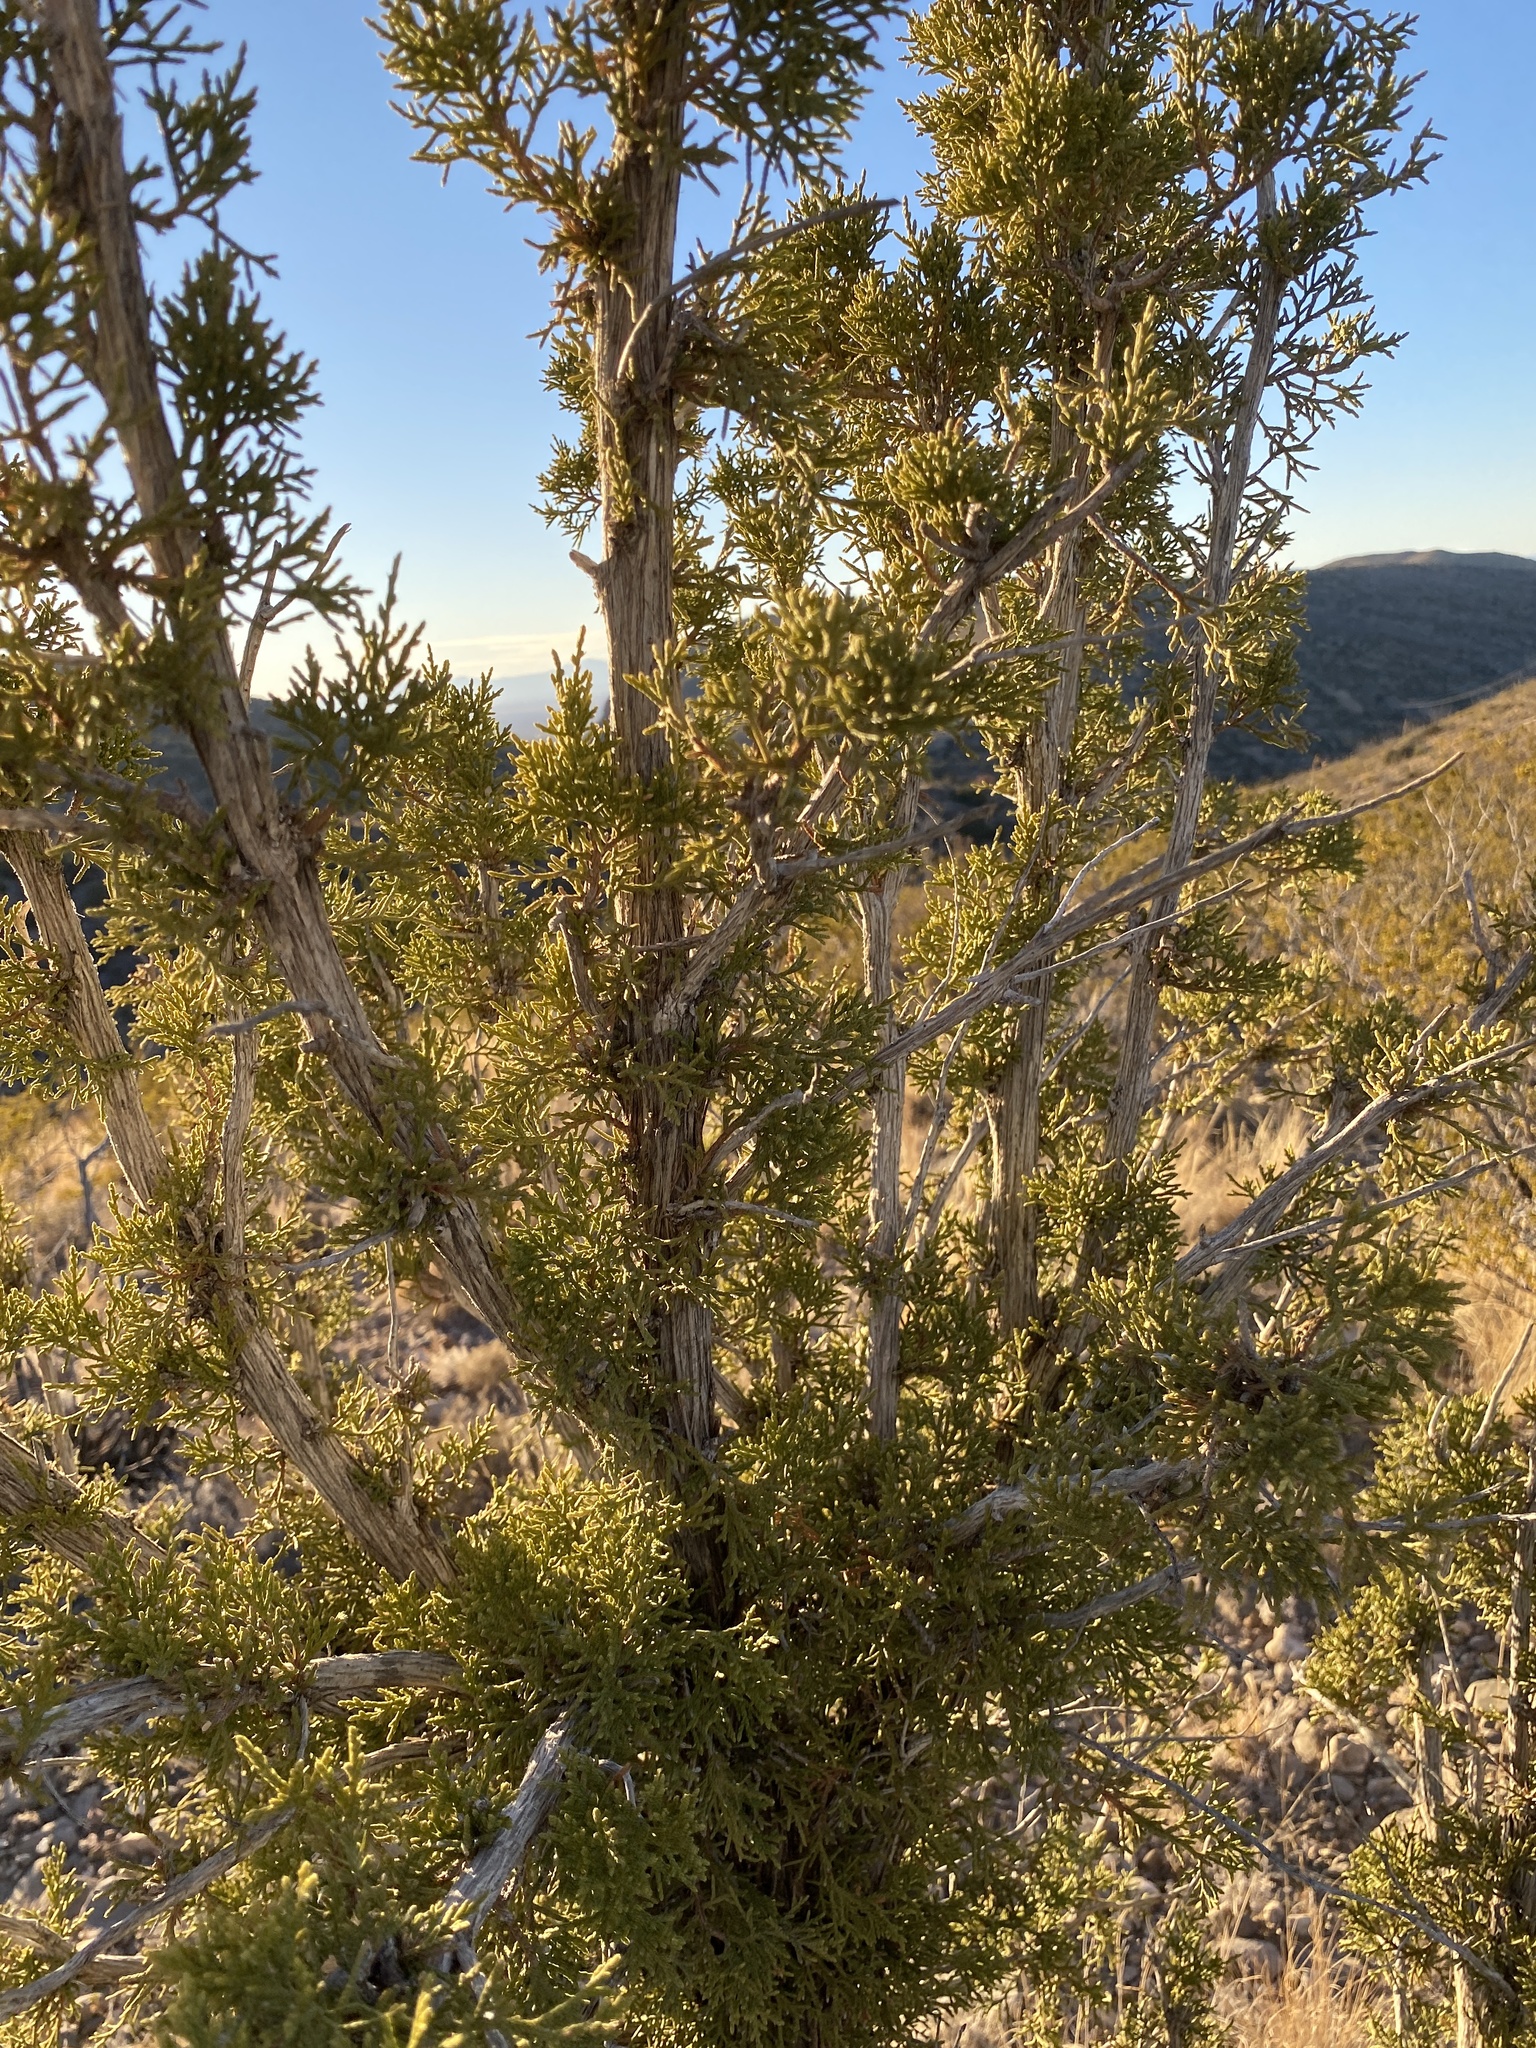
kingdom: Plantae
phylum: Tracheophyta
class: Pinopsida
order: Pinales
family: Cupressaceae
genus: Juniperus
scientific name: Juniperus monosperma
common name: One-seed juniper
